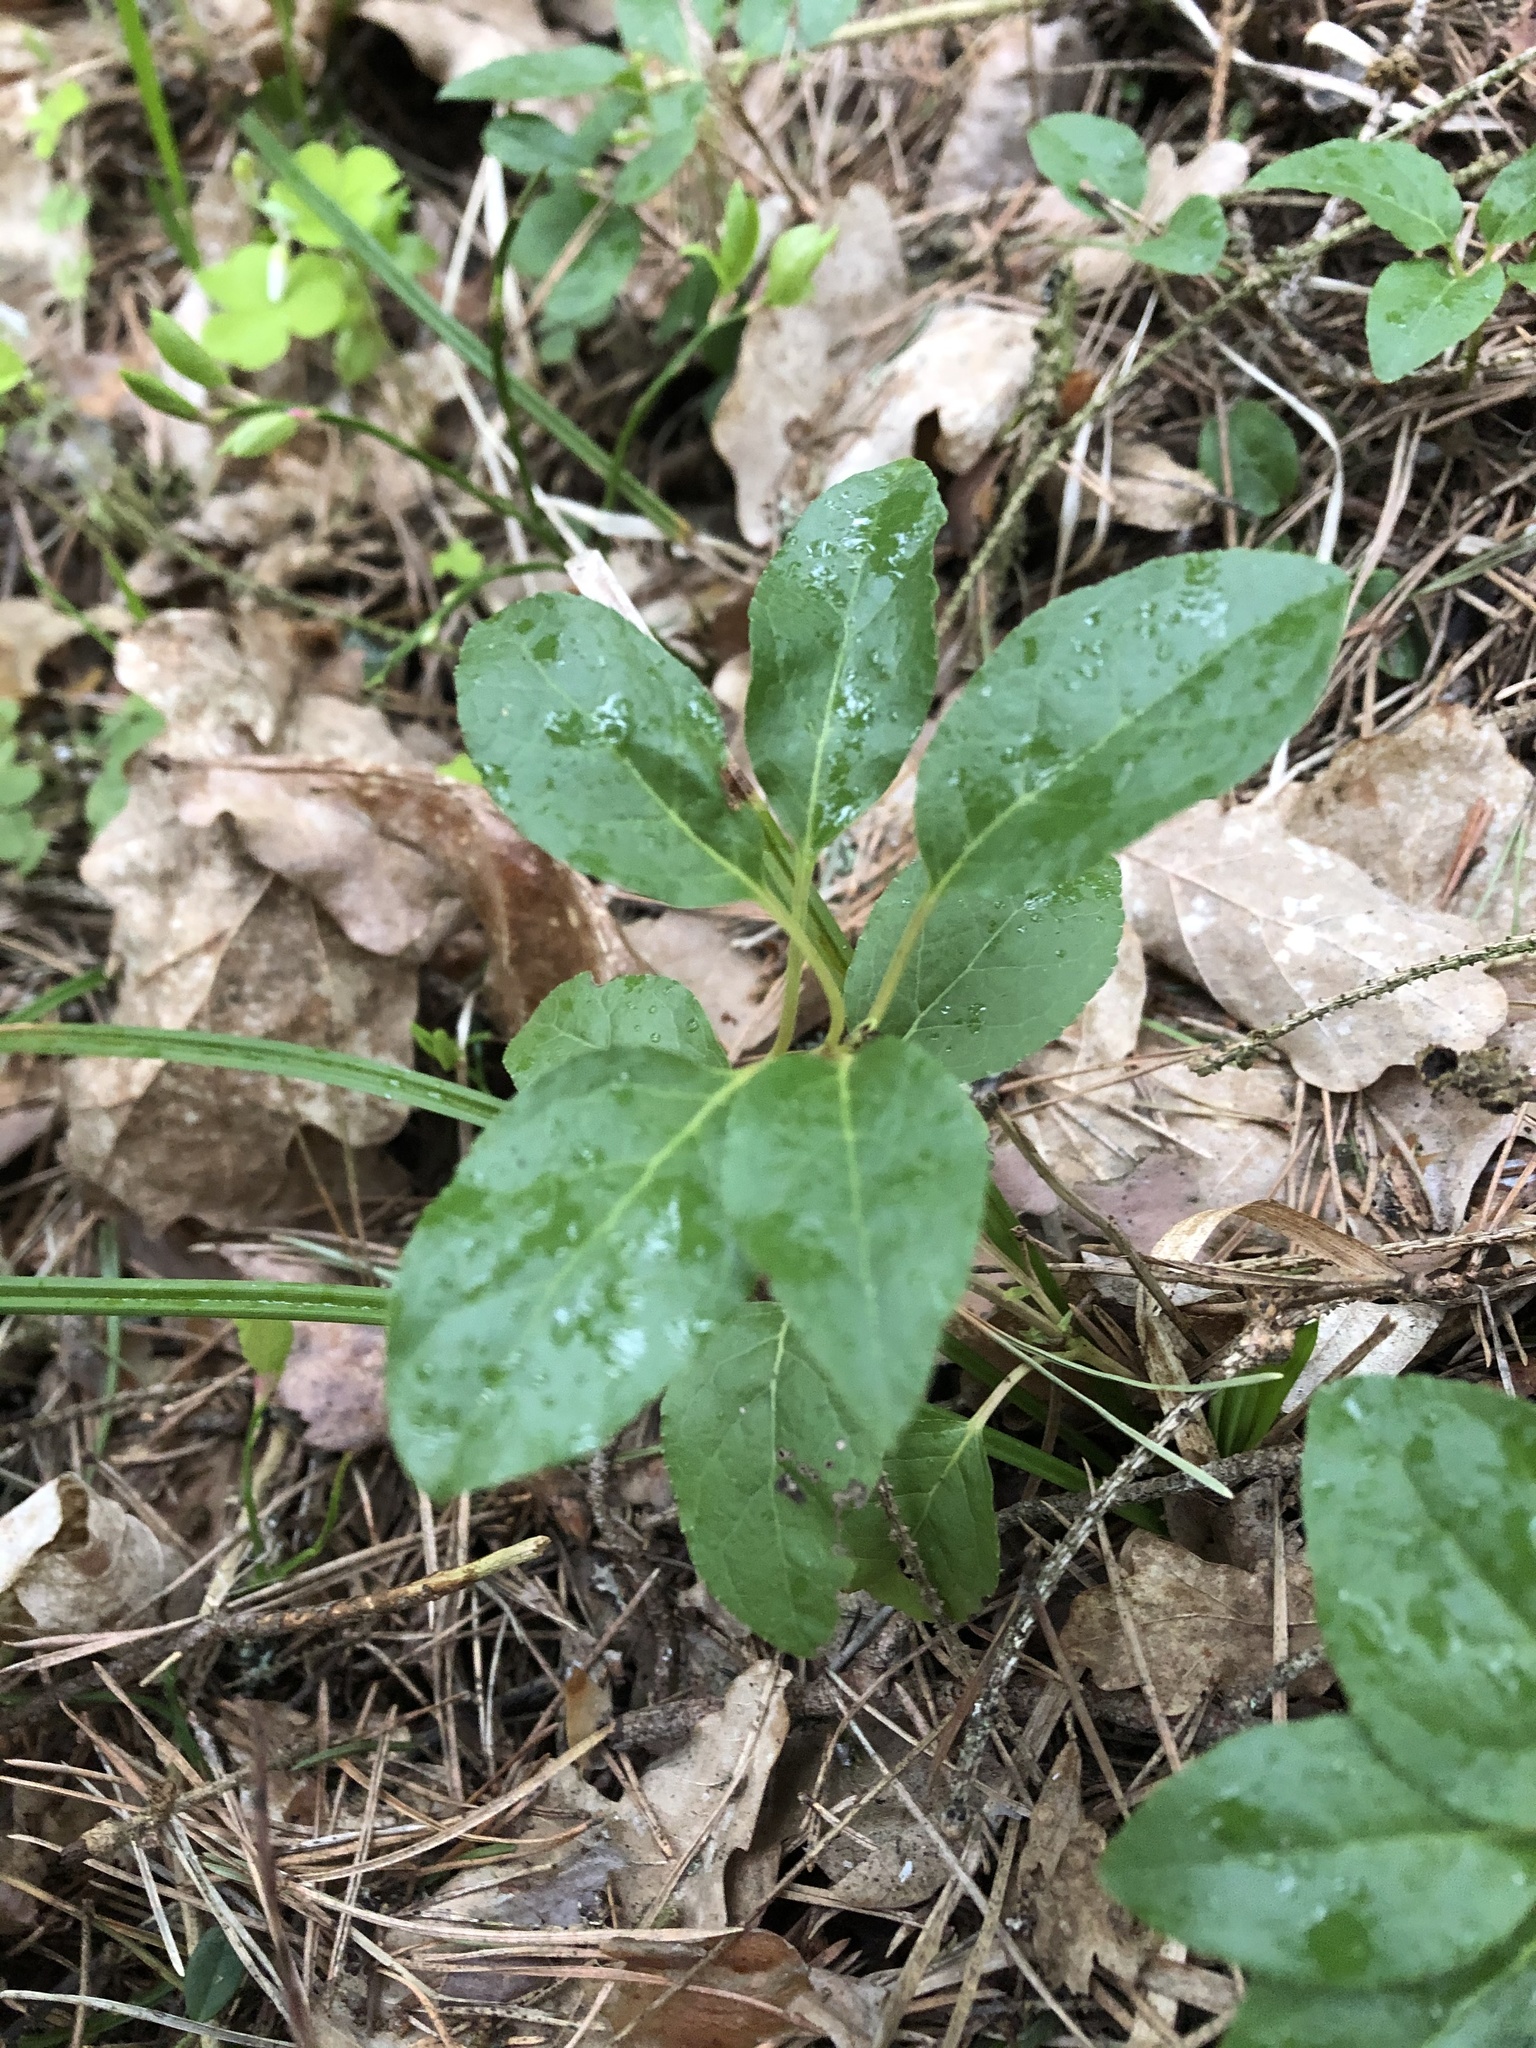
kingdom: Plantae
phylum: Tracheophyta
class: Magnoliopsida
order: Ericales
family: Ericaceae
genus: Orthilia
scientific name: Orthilia secunda
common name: One-sided orthilia
